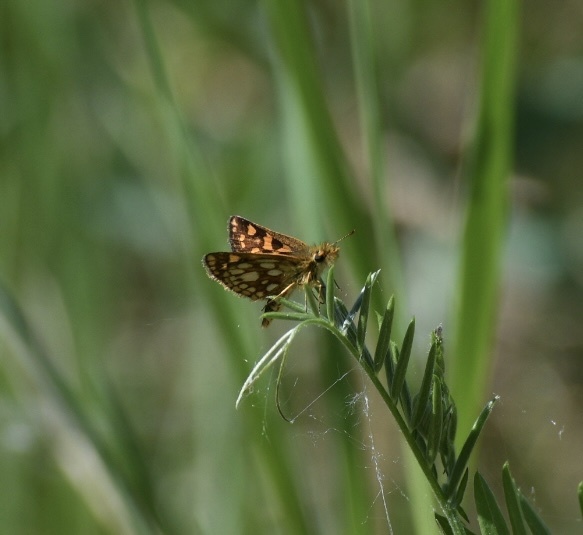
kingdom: Animalia
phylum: Arthropoda
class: Insecta
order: Lepidoptera
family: Hesperiidae
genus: Carterocephalus
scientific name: Carterocephalus mandan
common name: Arctic skipperling
